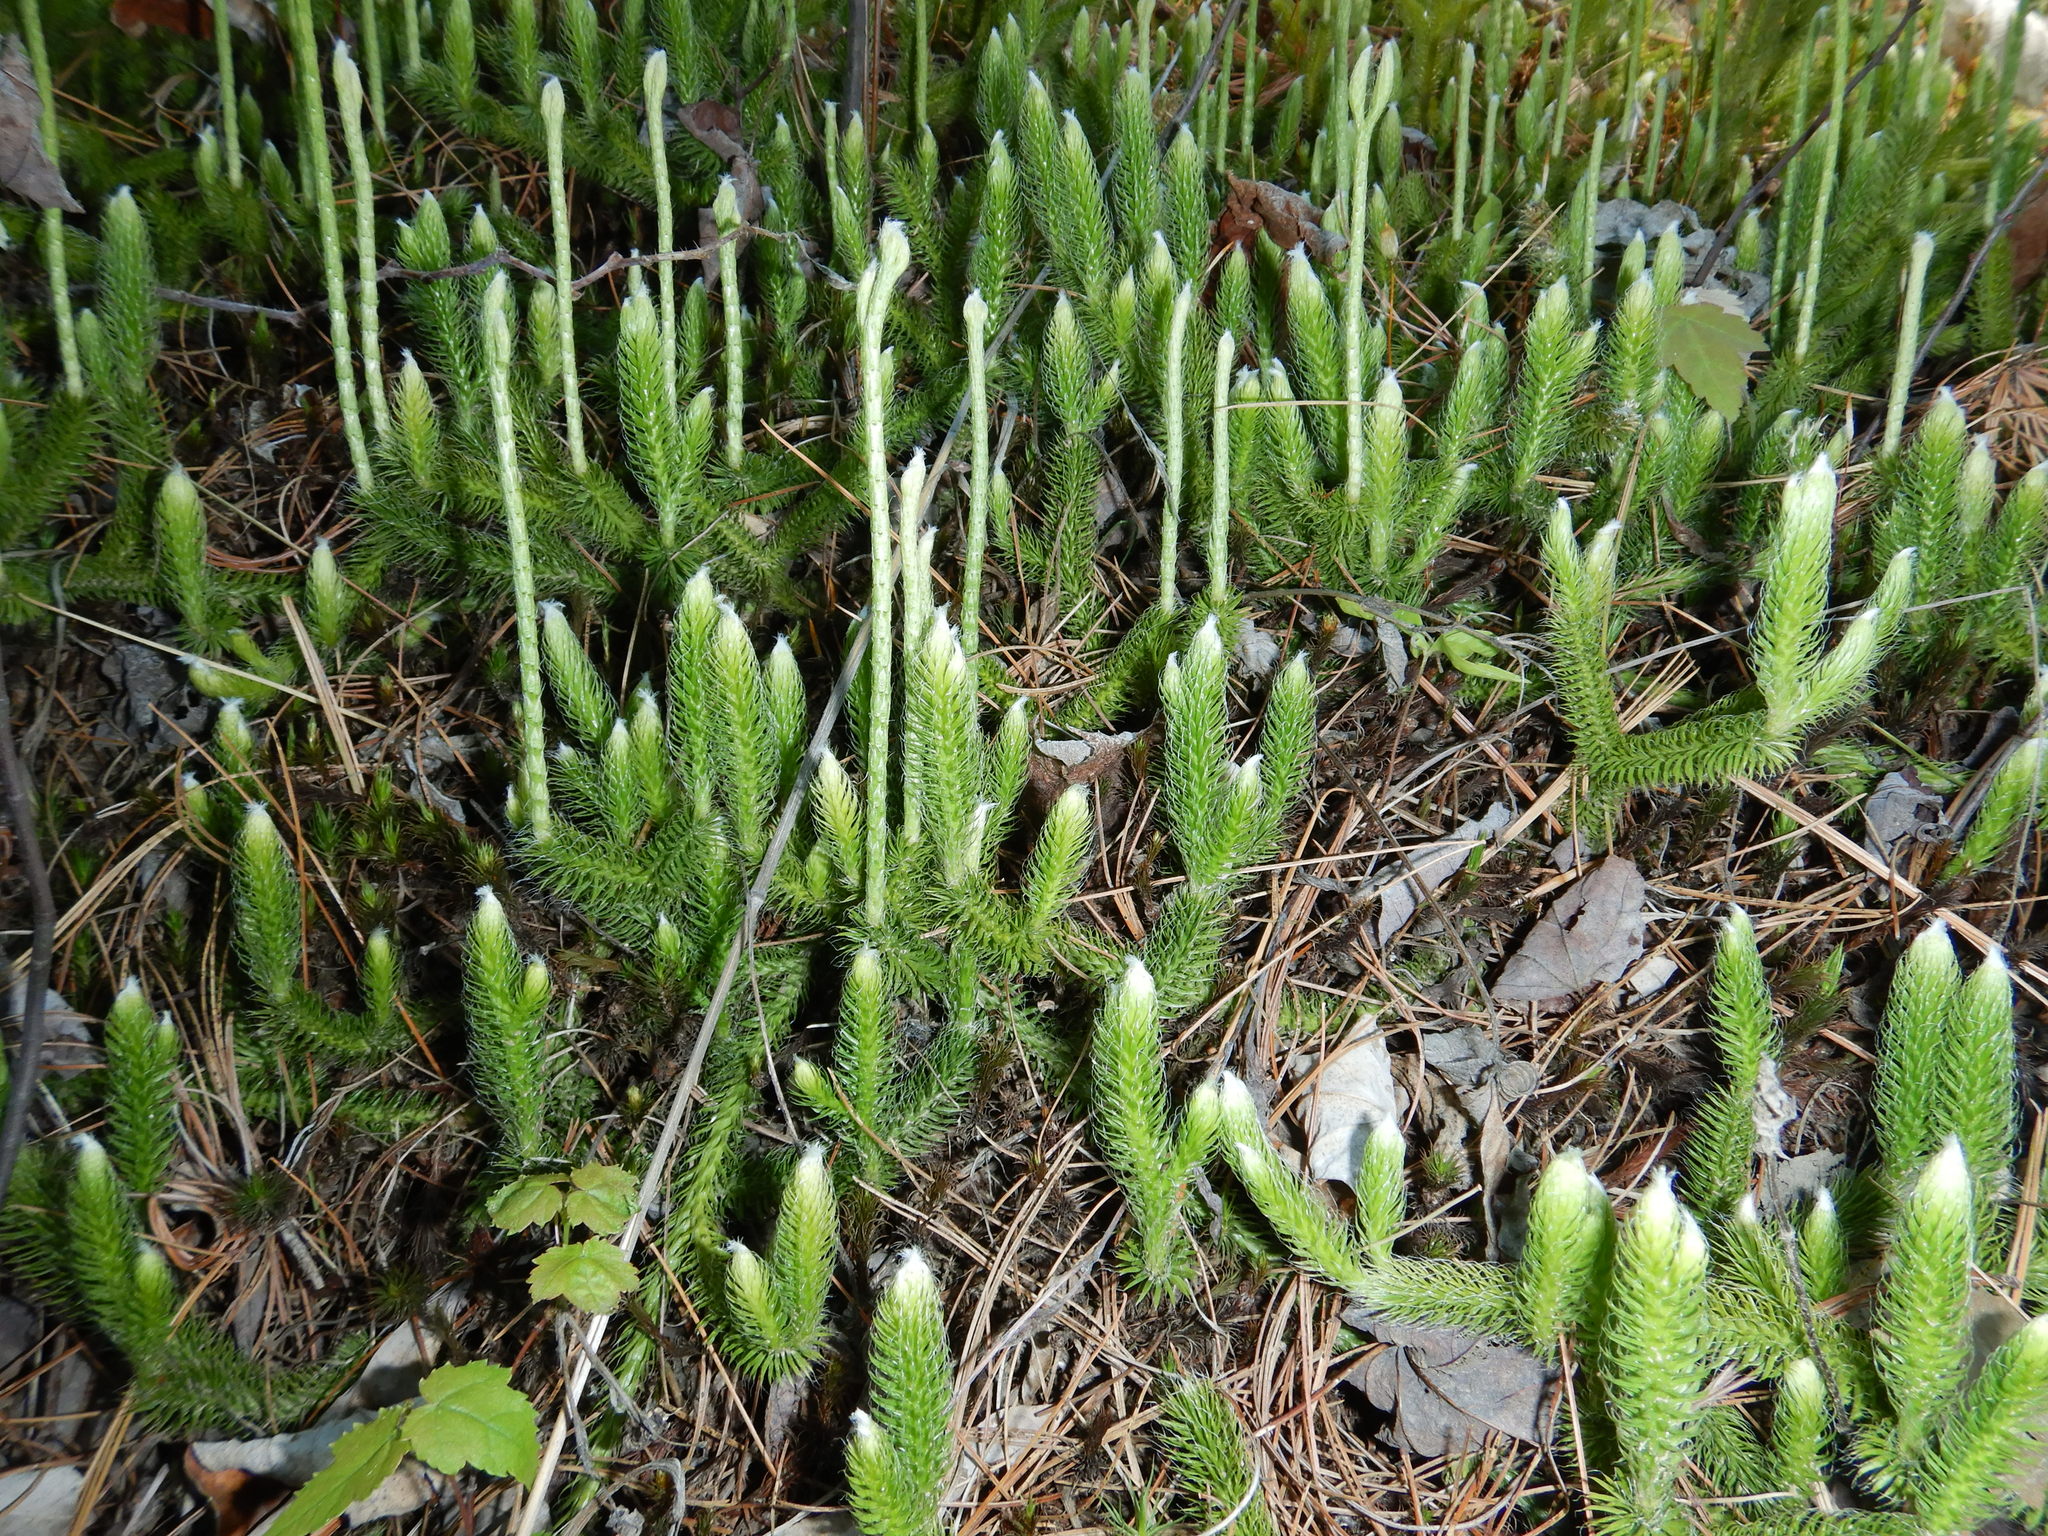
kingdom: Plantae
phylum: Tracheophyta
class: Lycopodiopsida
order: Lycopodiales
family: Lycopodiaceae
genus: Lycopodium
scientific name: Lycopodium clavatum
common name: Stag's-horn clubmoss
